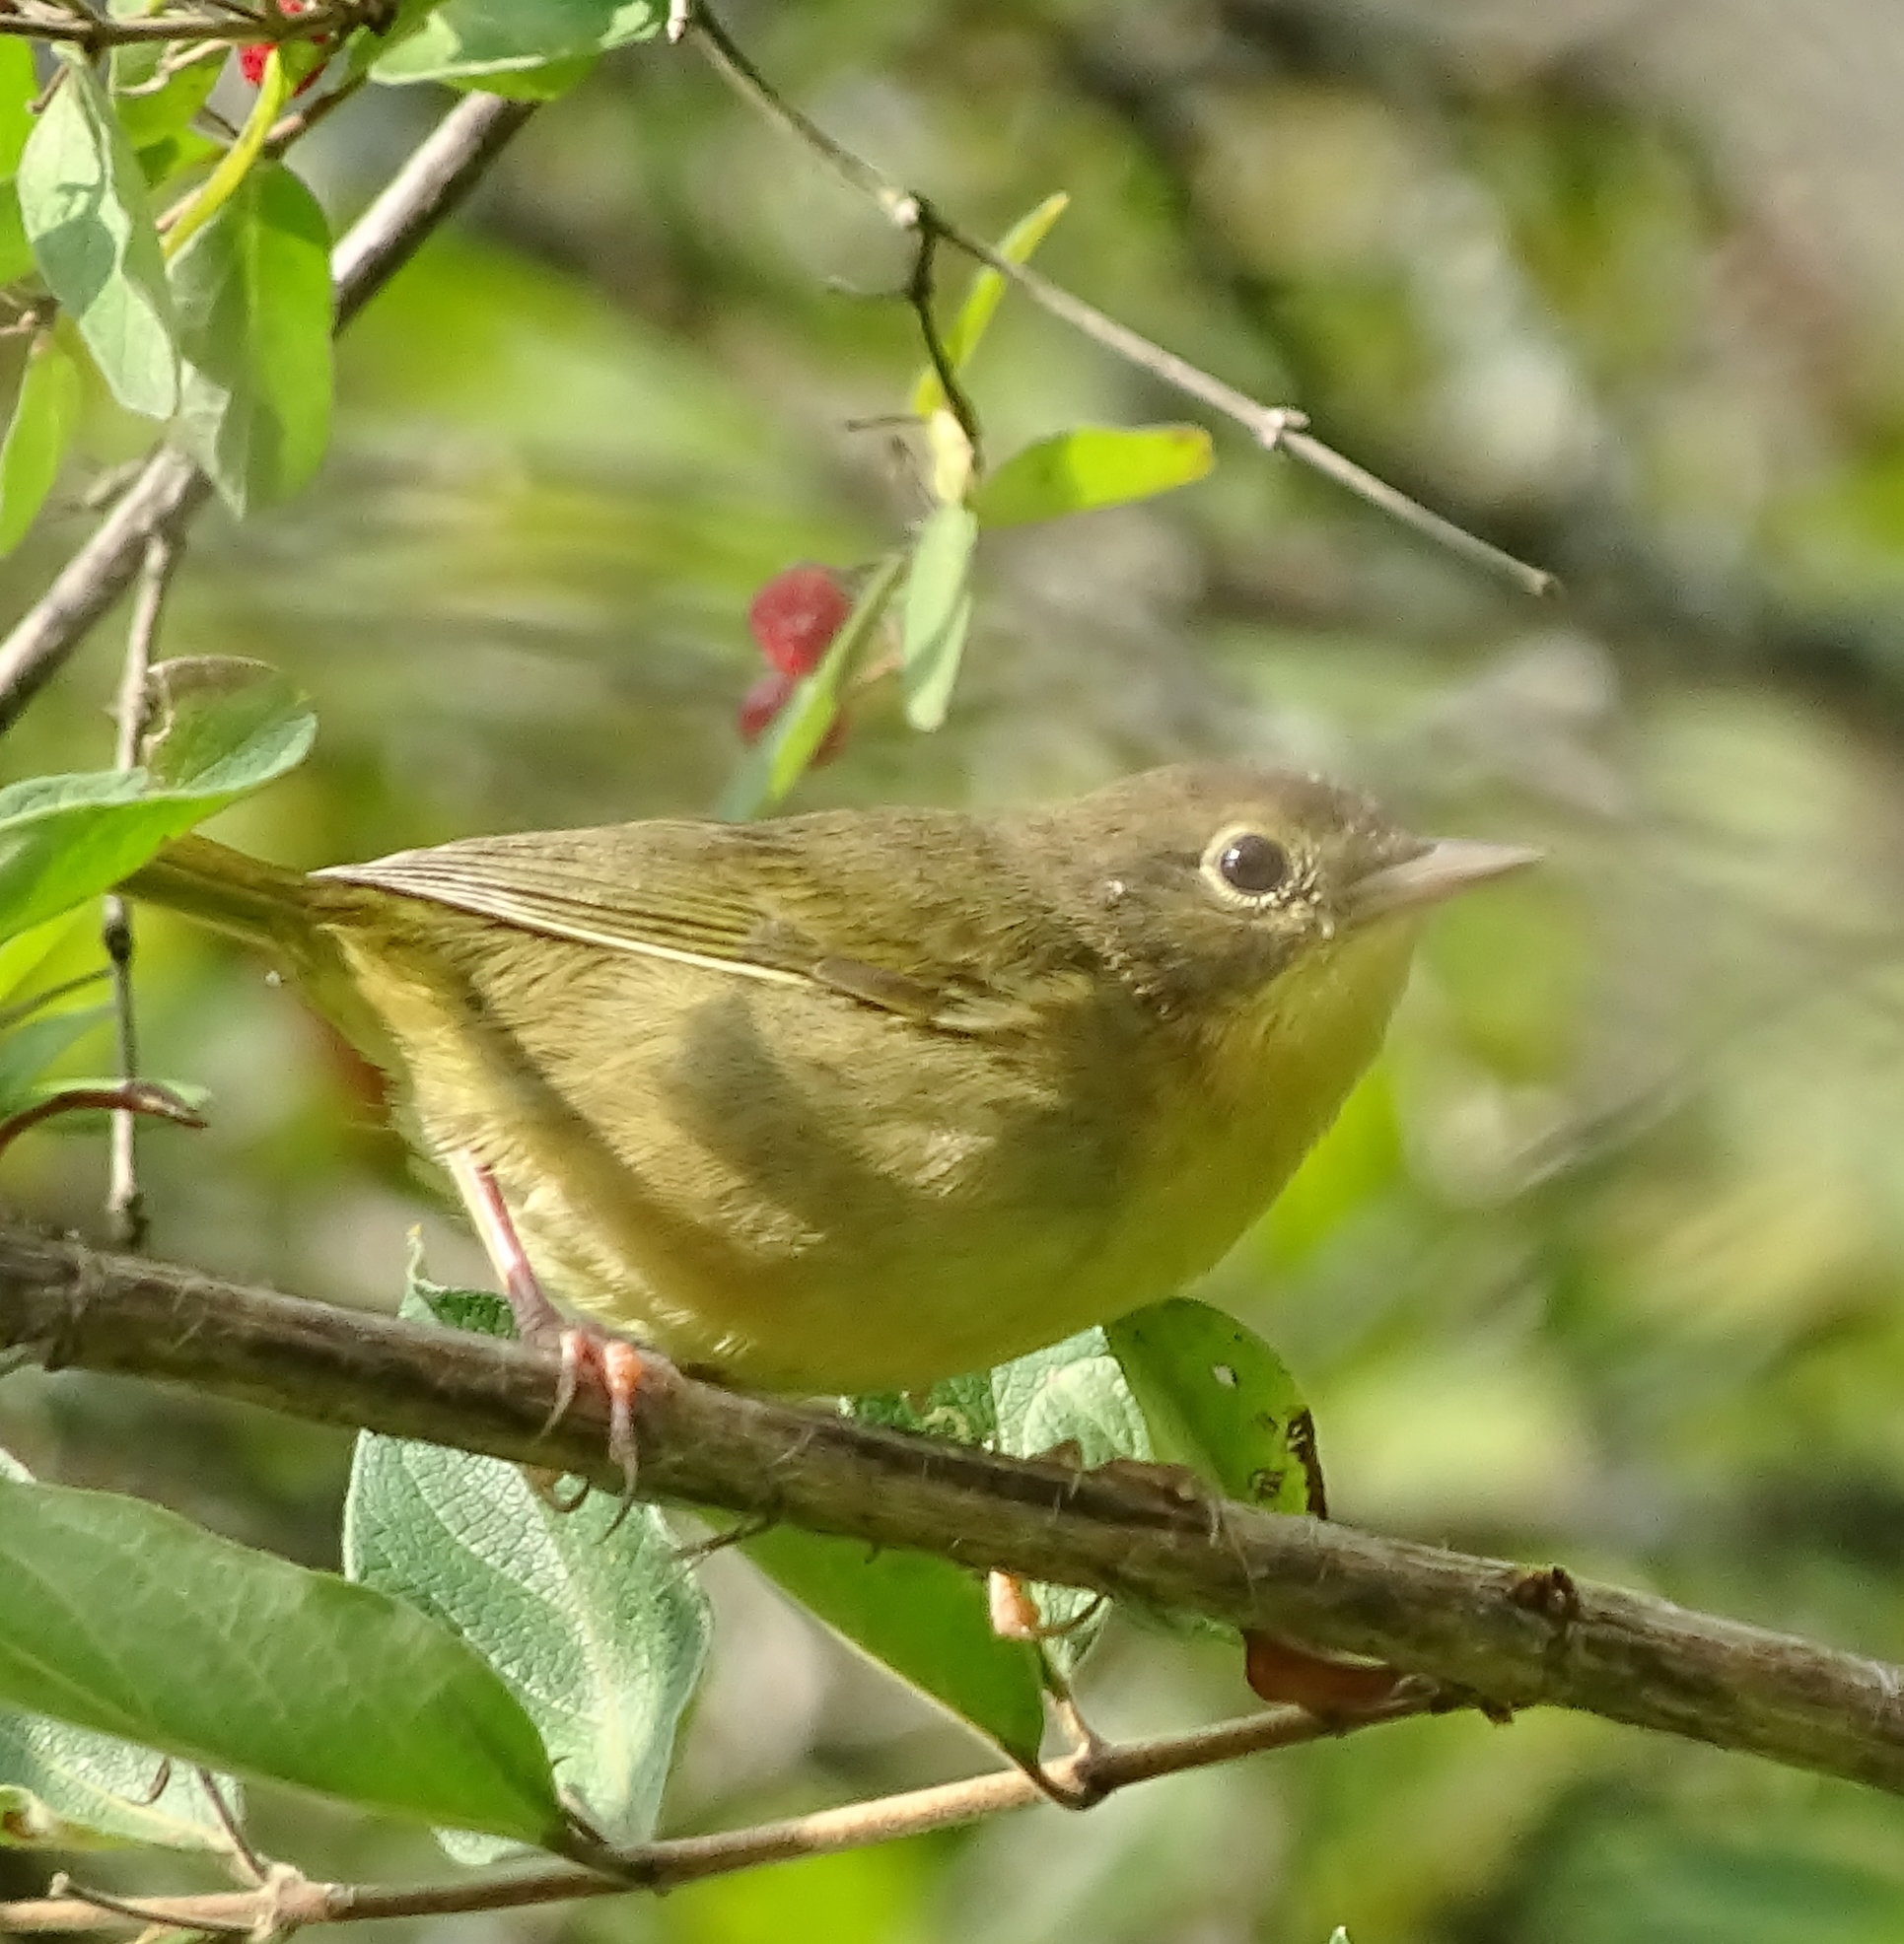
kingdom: Animalia
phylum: Chordata
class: Aves
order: Passeriformes
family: Parulidae
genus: Geothlypis
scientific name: Geothlypis trichas
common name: Common yellowthroat
